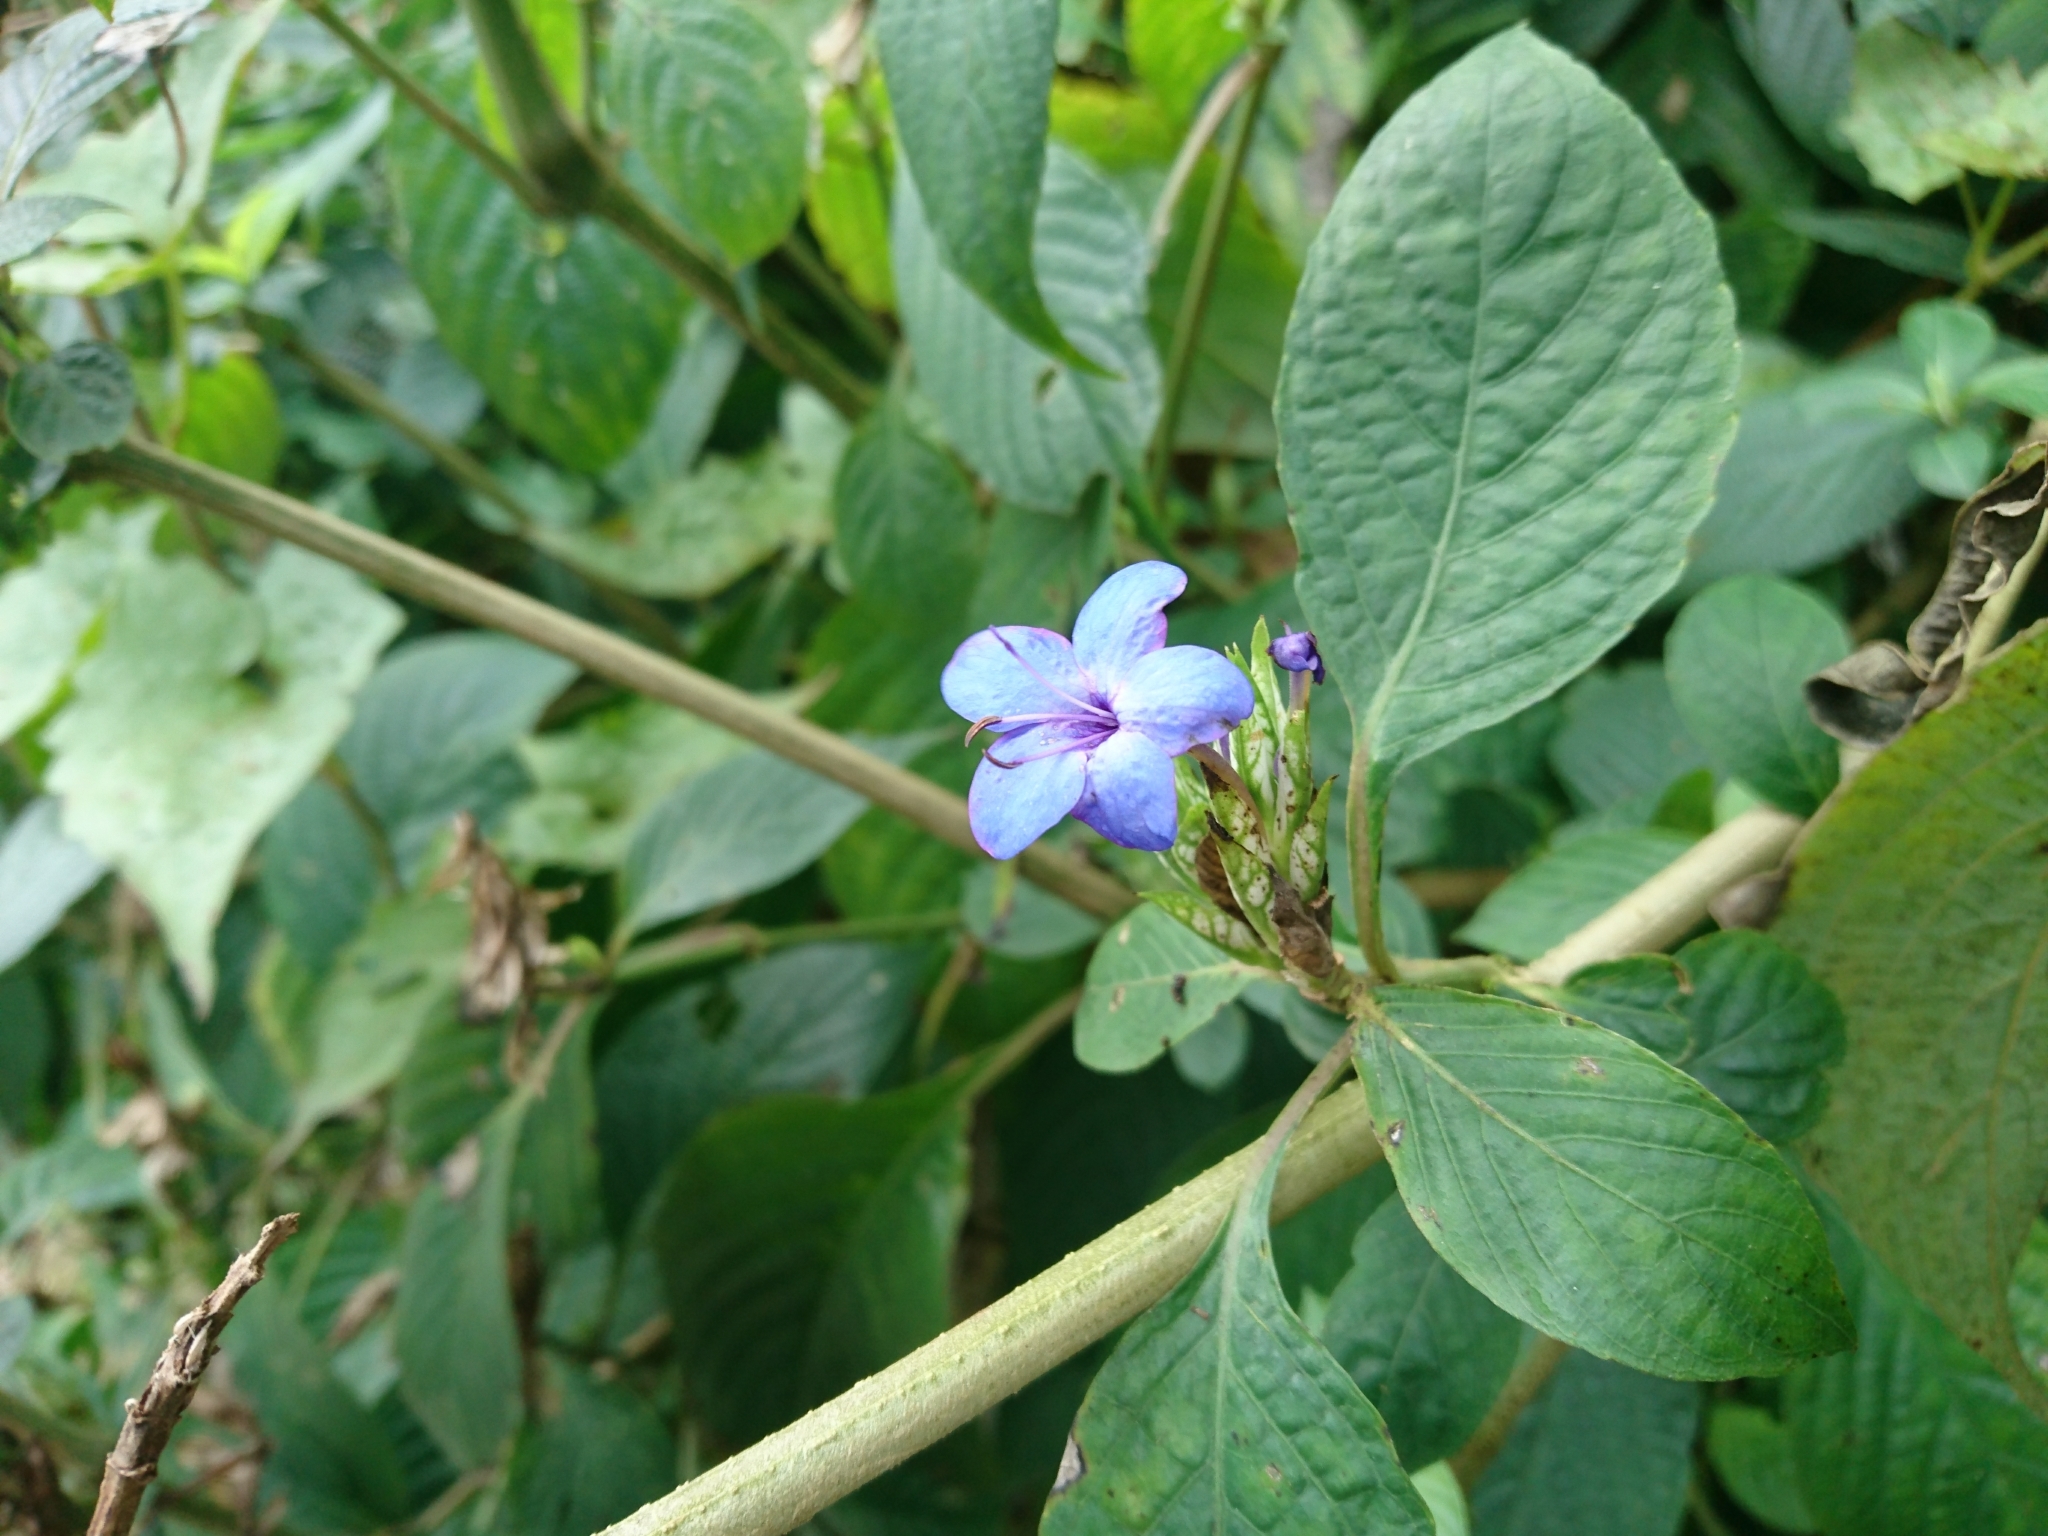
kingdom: Plantae
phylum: Tracheophyta
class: Magnoliopsida
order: Lamiales
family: Acanthaceae
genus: Eranthemum
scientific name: Eranthemum pulchellum
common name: Blue-sage
